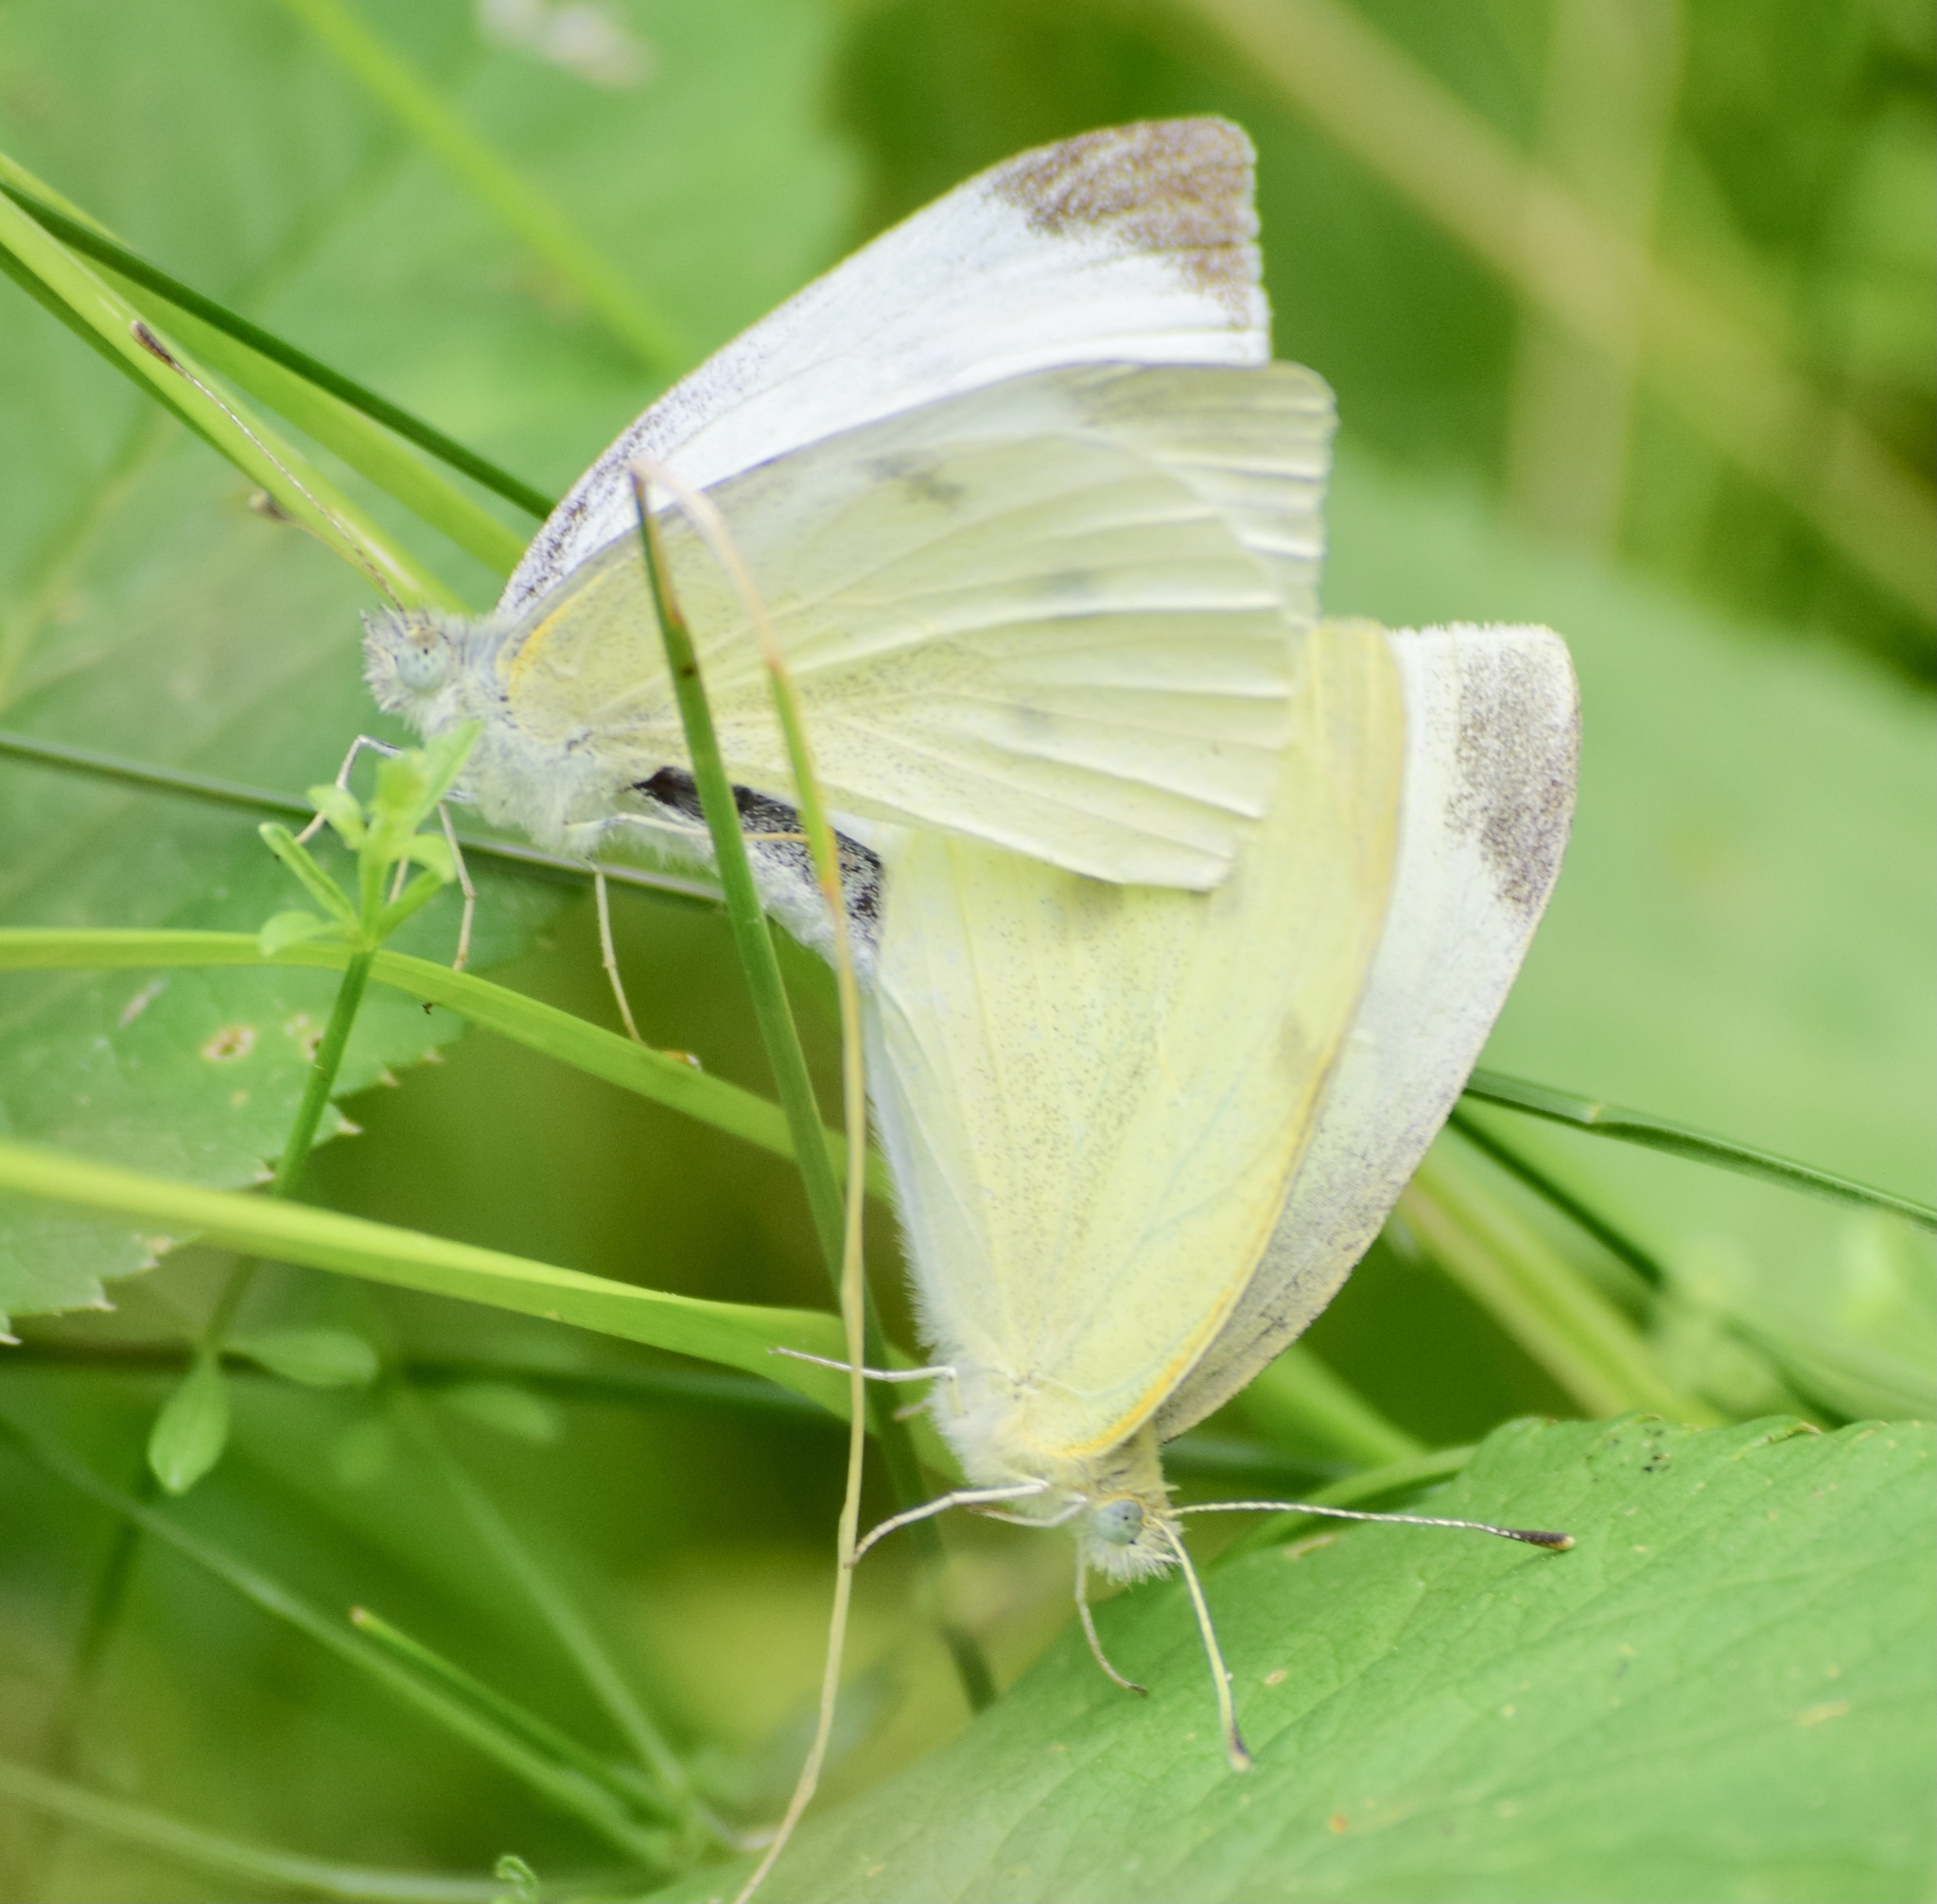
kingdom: Animalia
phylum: Arthropoda
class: Insecta
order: Lepidoptera
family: Pieridae
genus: Pieris
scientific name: Pieris rapae
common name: Small white
